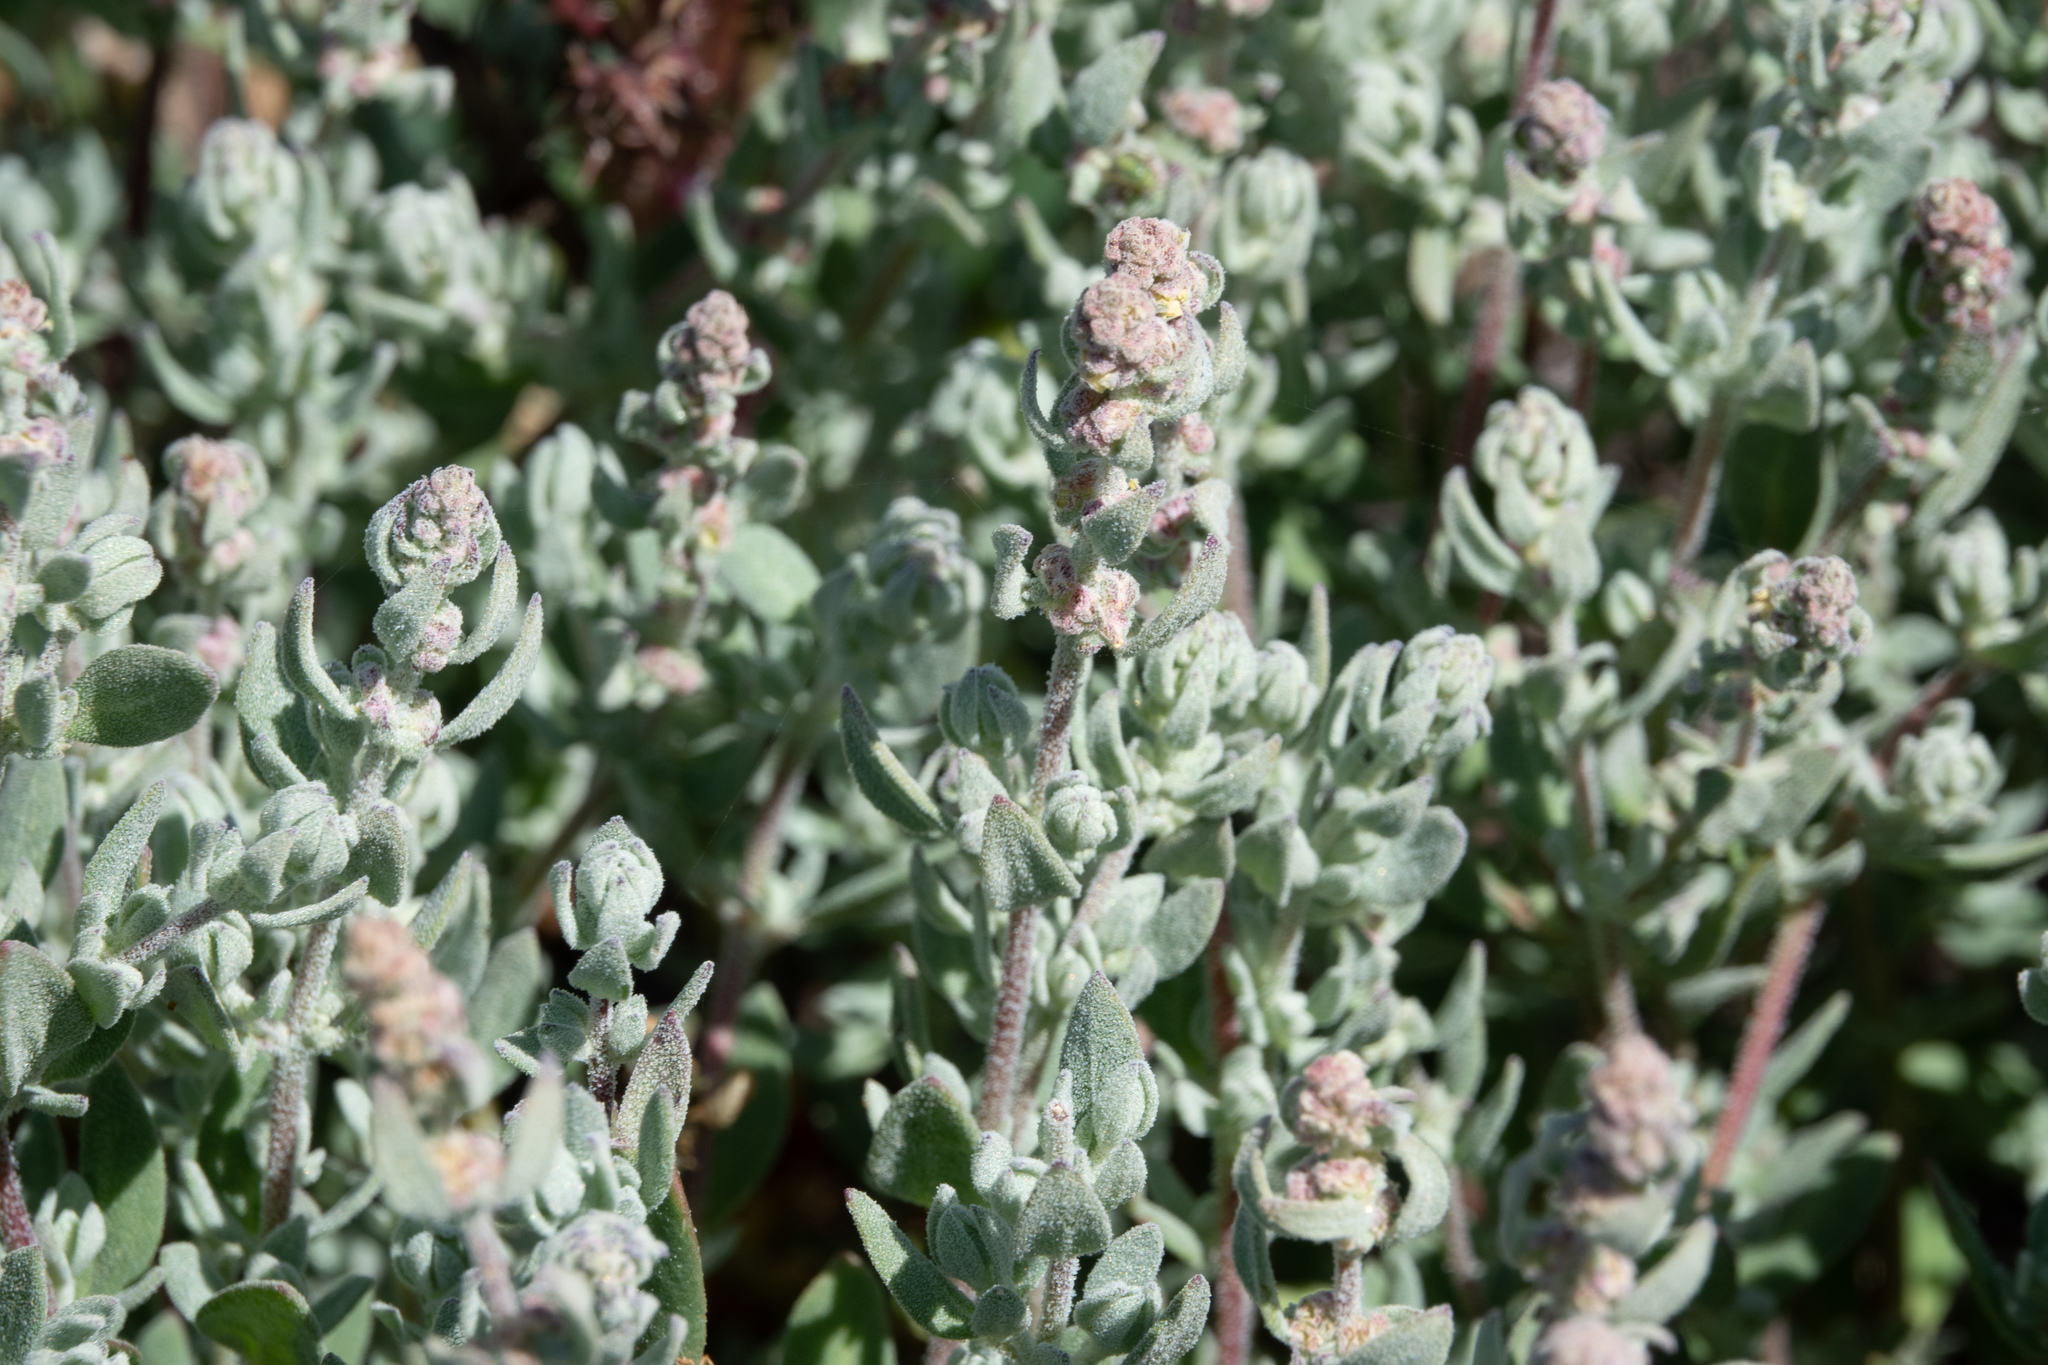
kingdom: Plantae
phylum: Tracheophyta
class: Magnoliopsida
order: Caryophyllales
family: Amaranthaceae
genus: Extriplex
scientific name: Extriplex californica
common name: California saltbush
